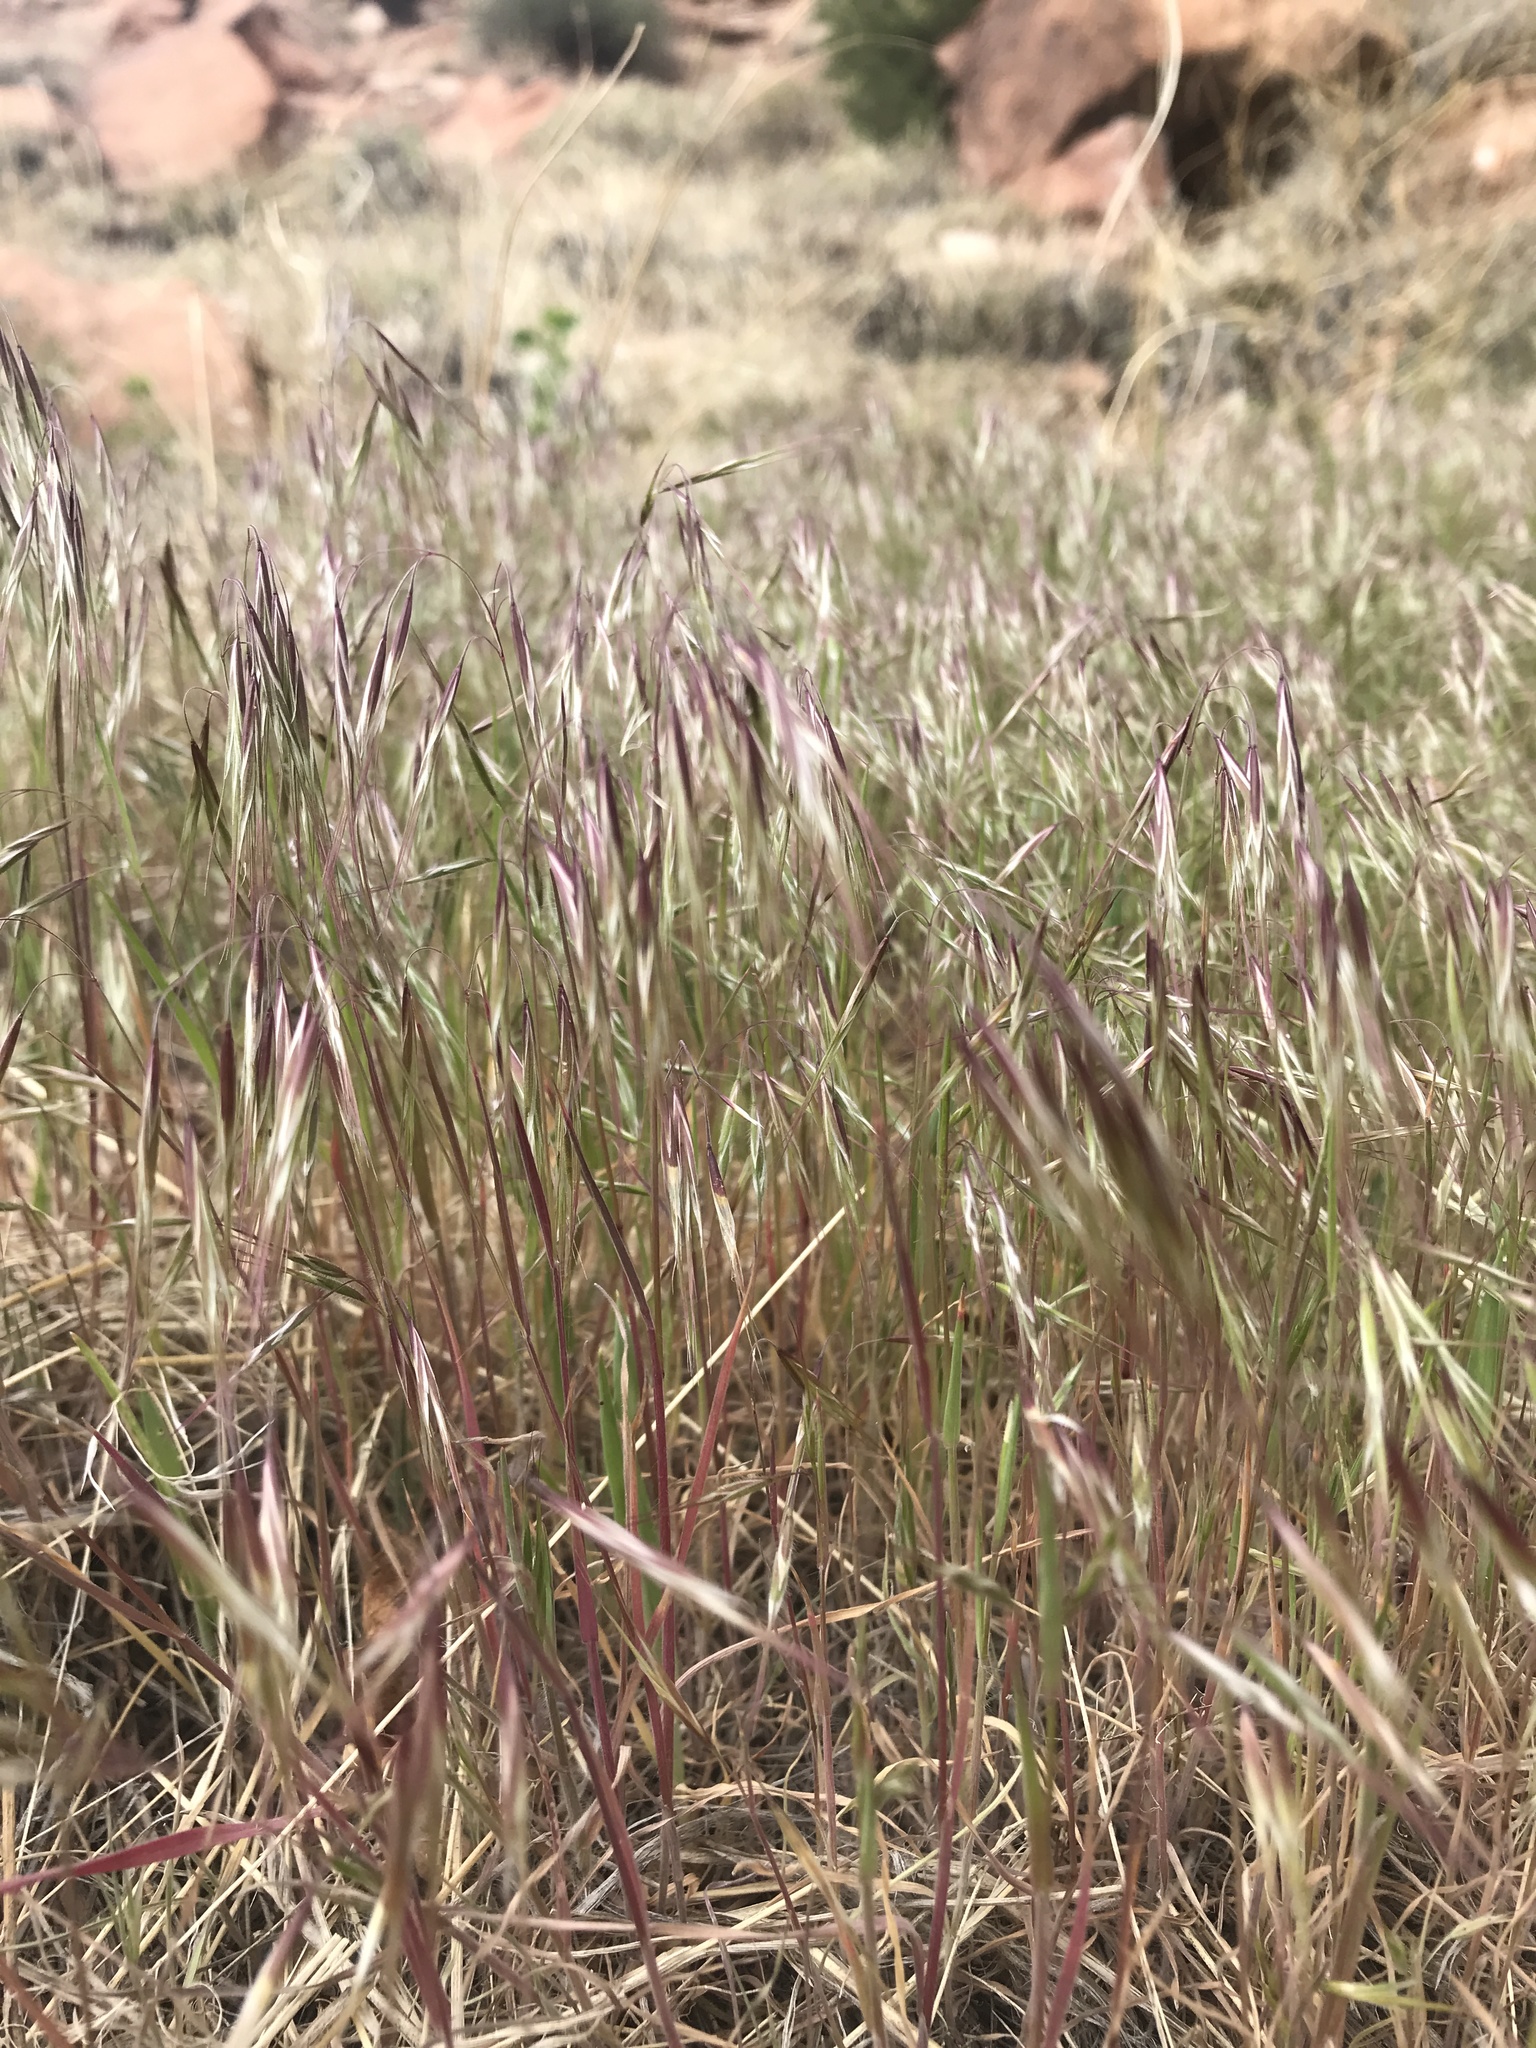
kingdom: Plantae
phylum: Tracheophyta
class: Liliopsida
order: Poales
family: Poaceae
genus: Bromus
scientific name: Bromus tectorum
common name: Cheatgrass
